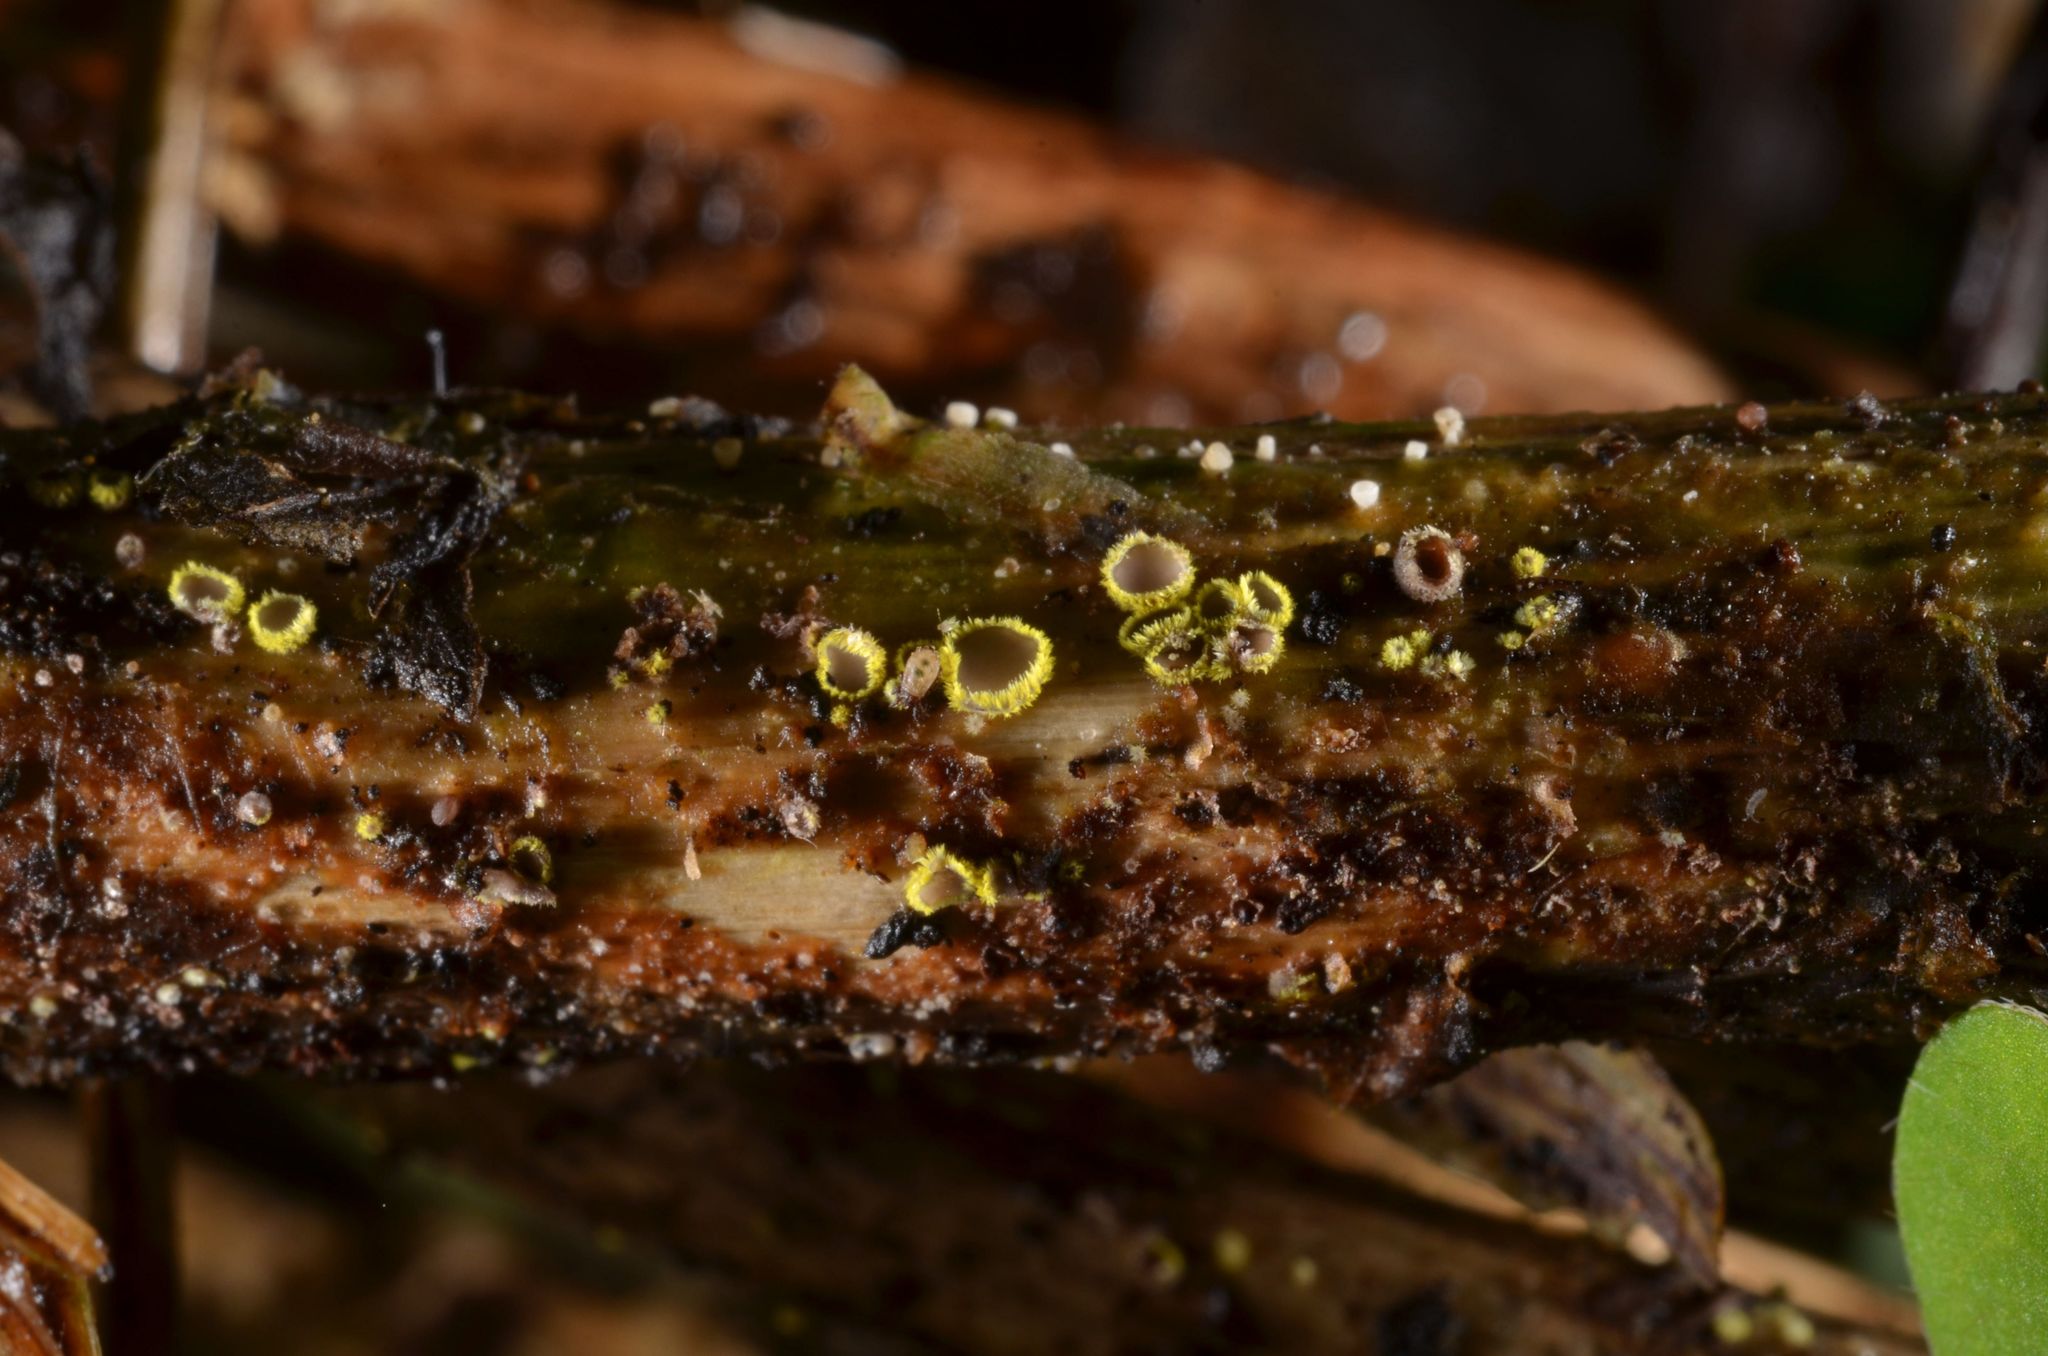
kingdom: Fungi
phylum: Ascomycota
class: Leotiomycetes
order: Helotiales
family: Lachnaceae
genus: Lachnum
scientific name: Lachnum sulphureum
